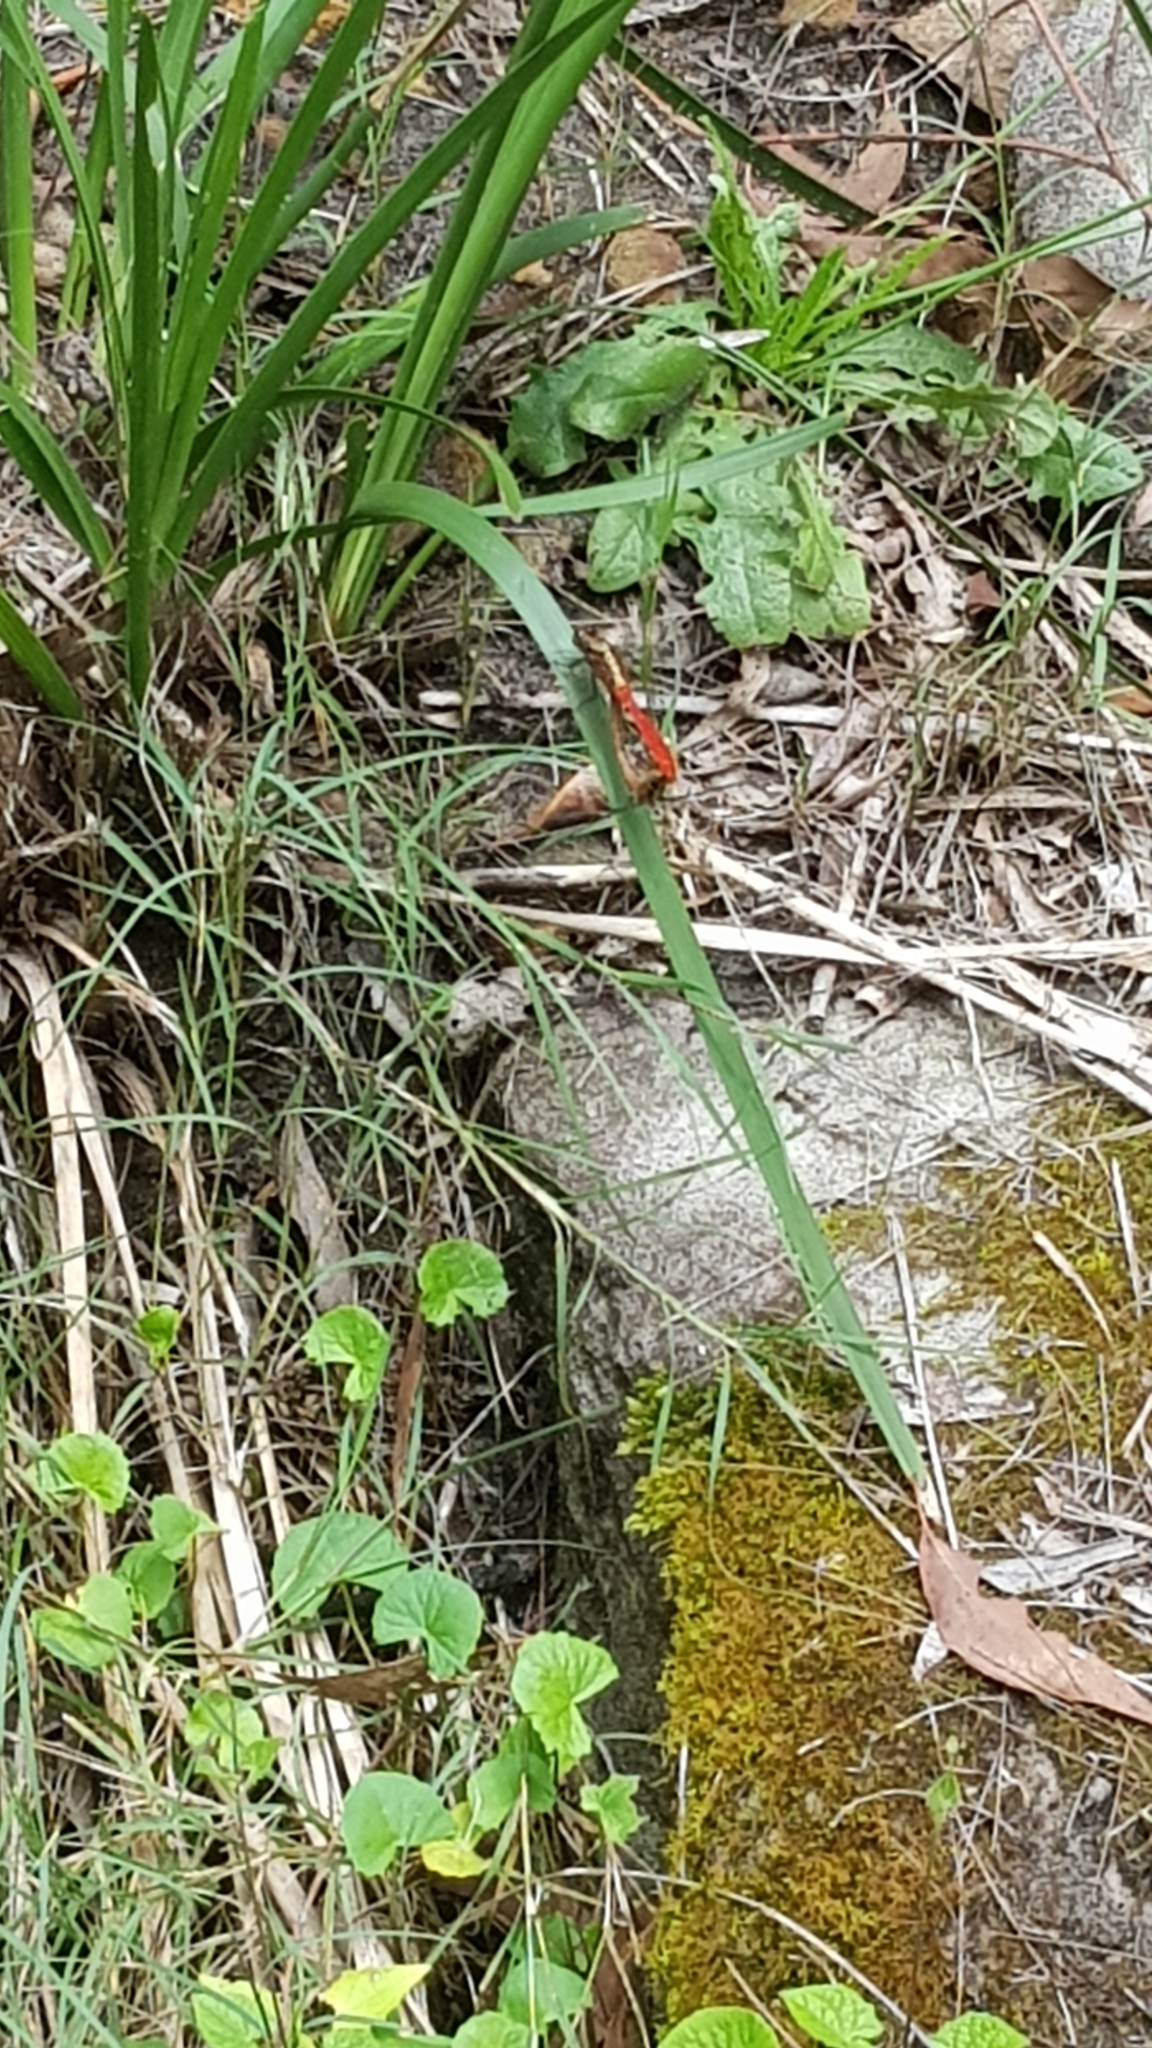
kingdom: Animalia
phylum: Arthropoda
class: Insecta
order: Odonata
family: Libellulidae
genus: Orthetrum
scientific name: Orthetrum villosovittatum
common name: Firery skimmer
